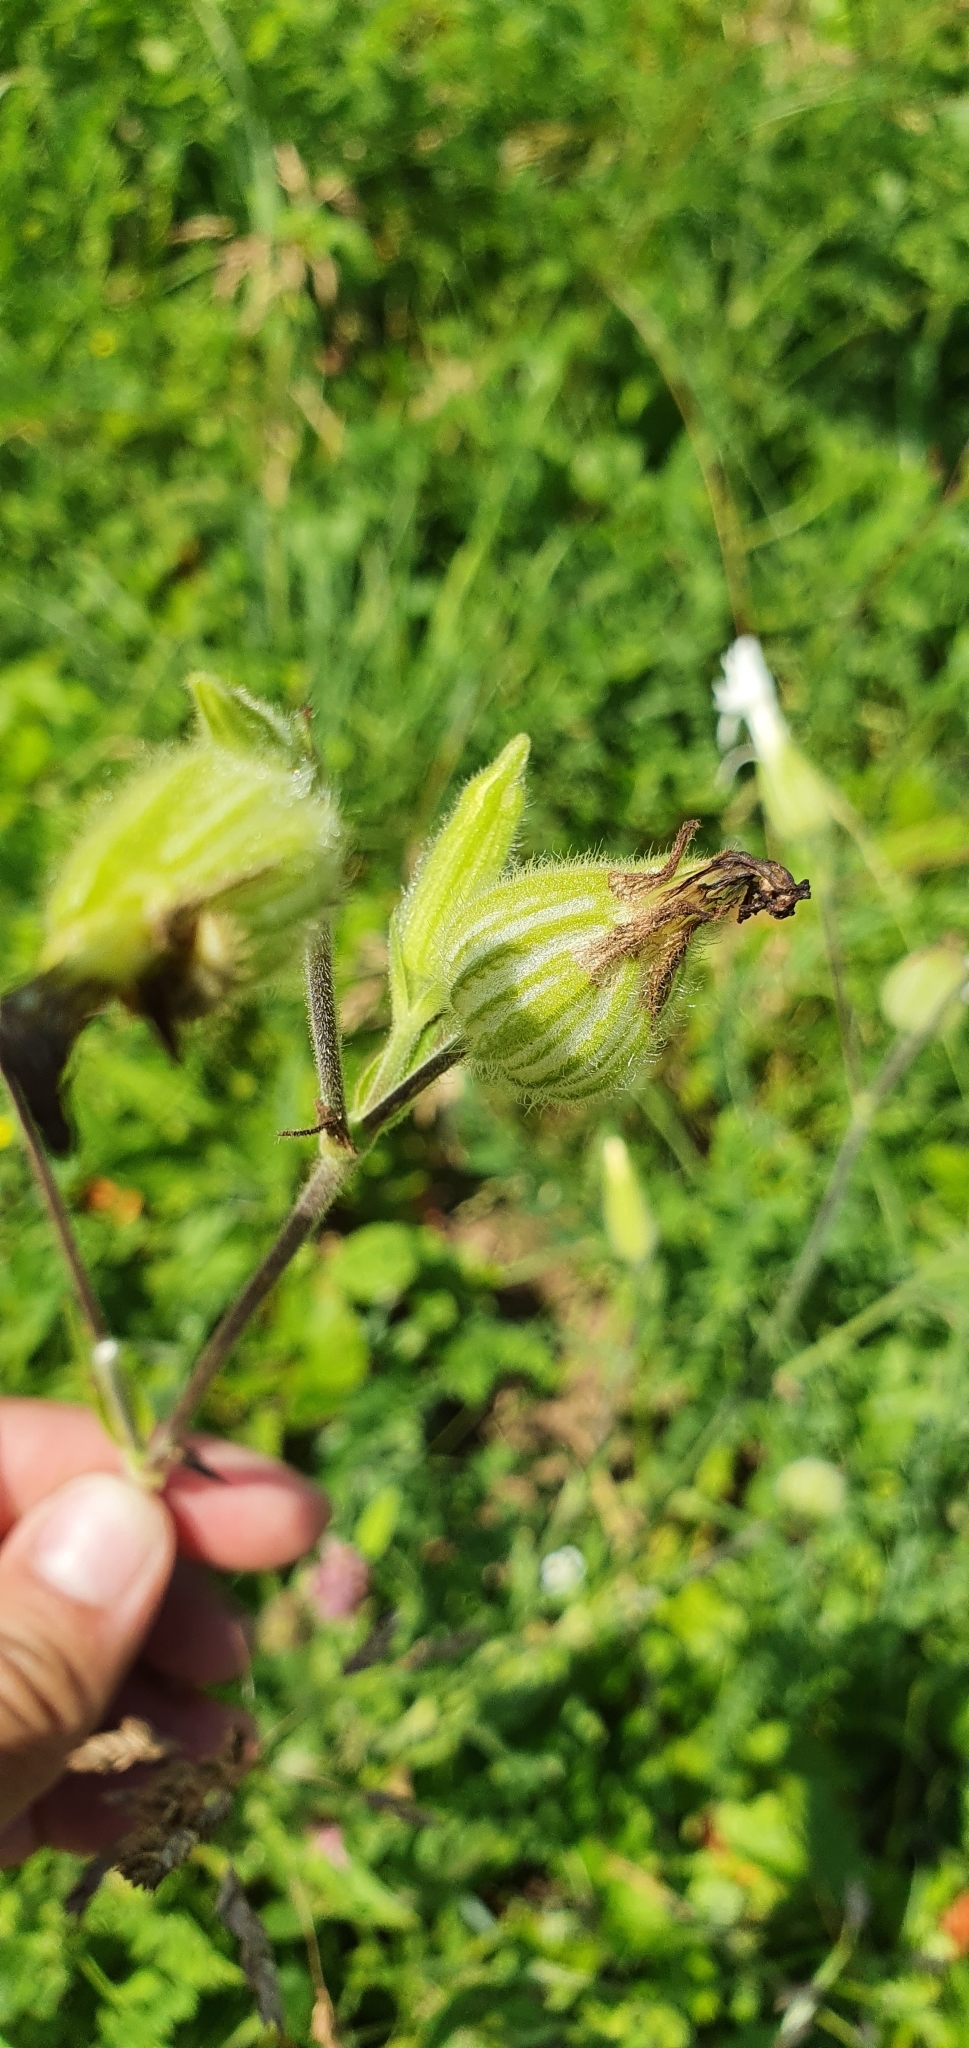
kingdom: Plantae
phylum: Tracheophyta
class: Magnoliopsida
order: Caryophyllales
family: Caryophyllaceae
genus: Silene
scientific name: Silene latifolia
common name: White campion
